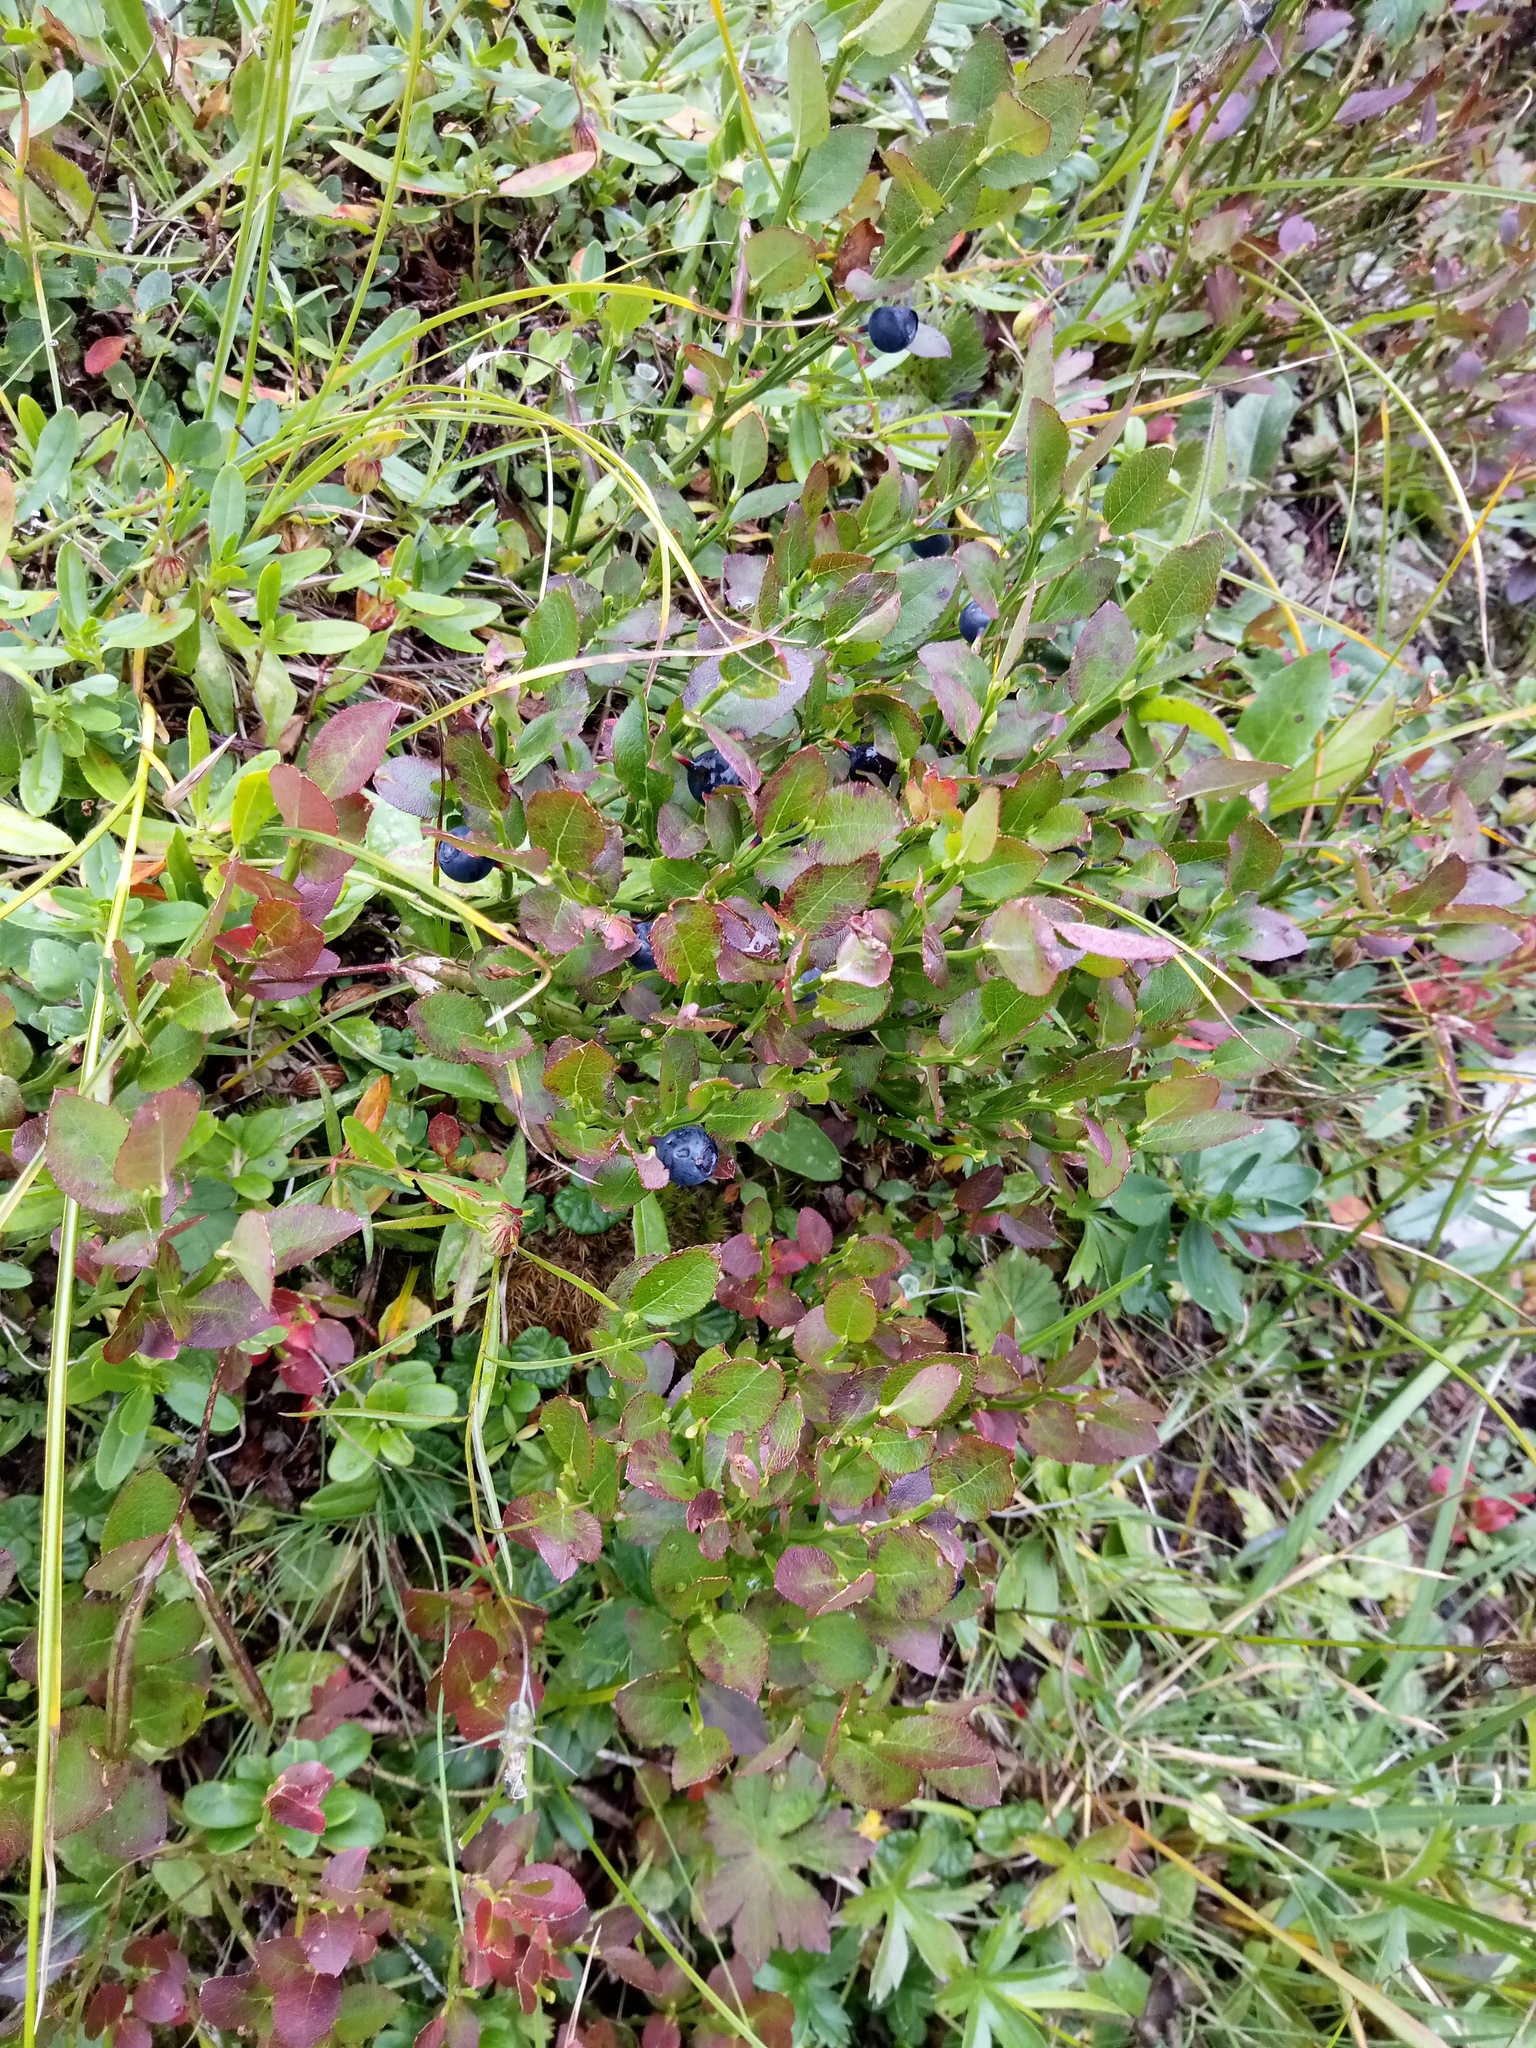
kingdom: Plantae
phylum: Tracheophyta
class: Magnoliopsida
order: Ericales
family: Ericaceae
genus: Vaccinium
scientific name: Vaccinium myrtillus
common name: Bilberry
